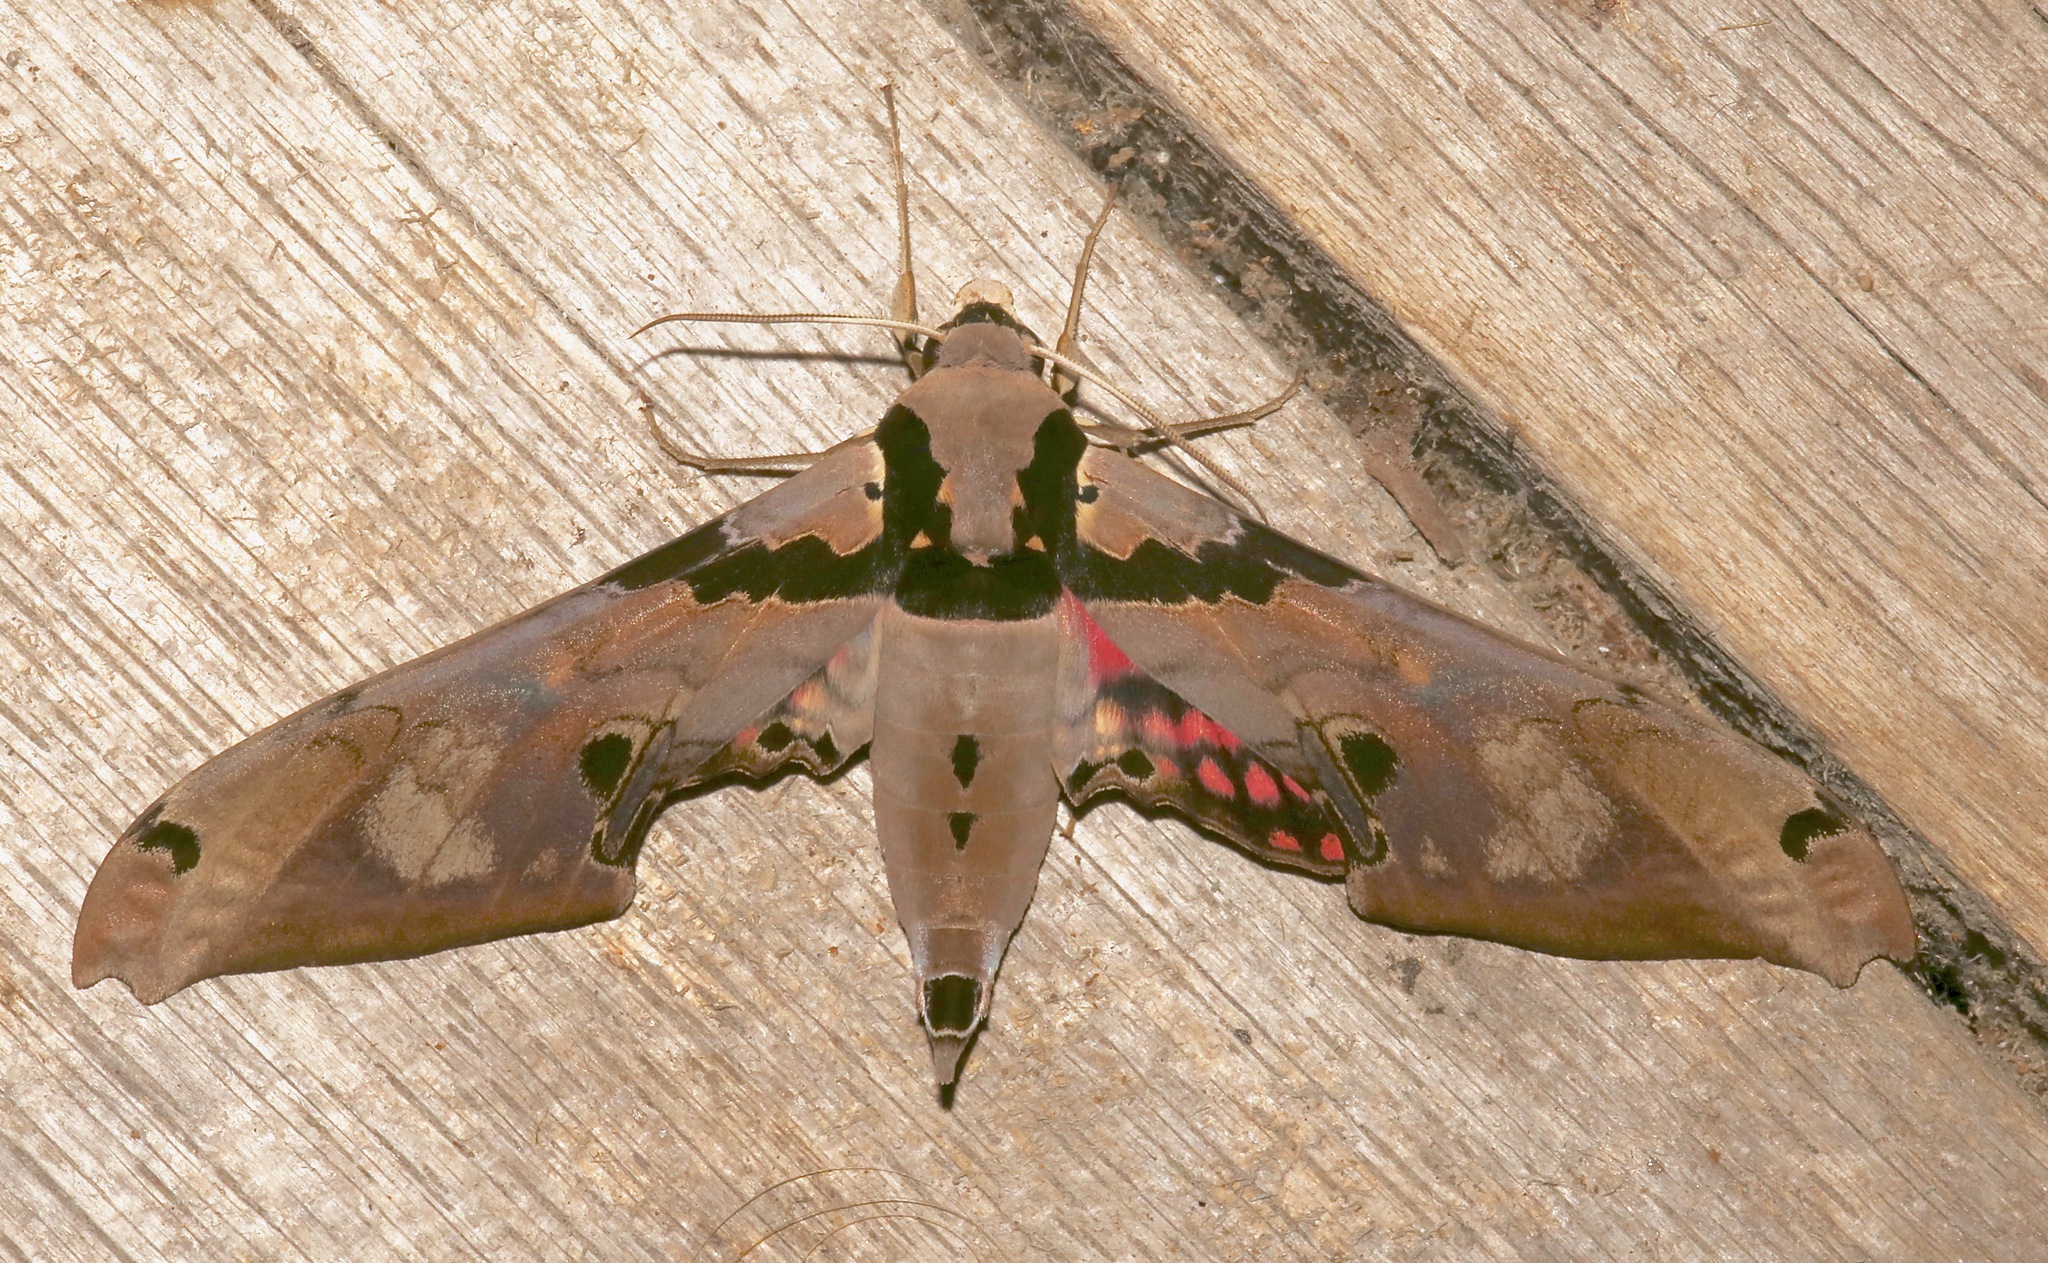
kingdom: Animalia
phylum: Arthropoda
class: Insecta
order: Lepidoptera
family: Sphingidae
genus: Adhemarius
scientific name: Adhemarius gannascus
